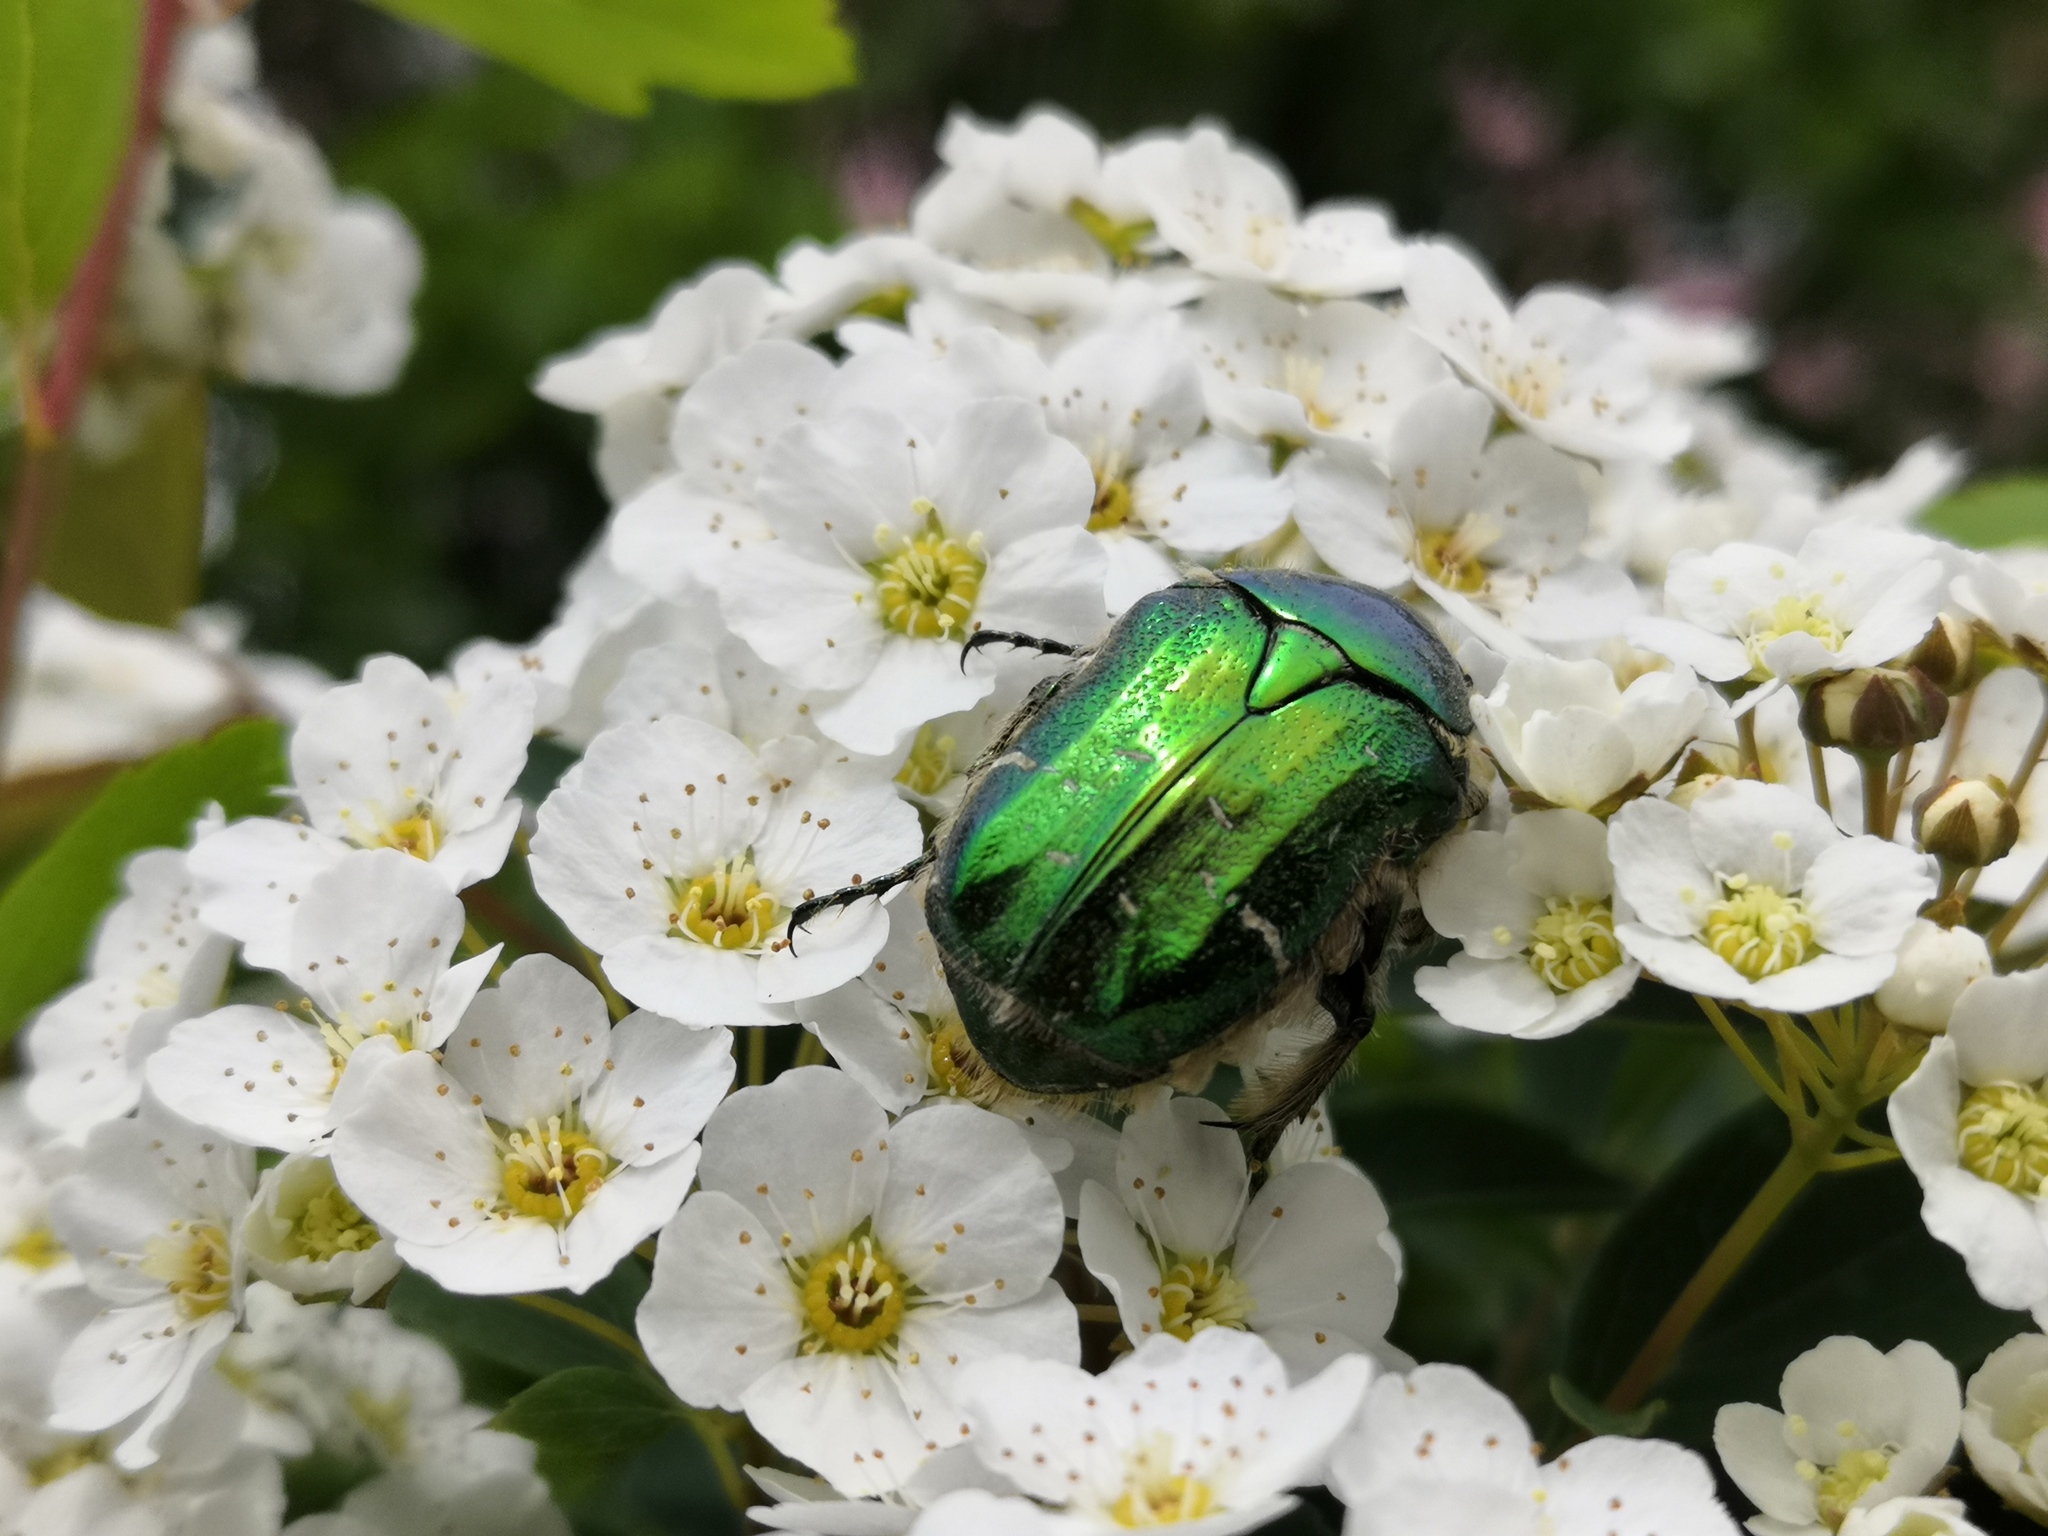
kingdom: Animalia
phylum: Arthropoda
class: Insecta
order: Coleoptera
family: Scarabaeidae
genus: Cetonia
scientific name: Cetonia aurata
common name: Rose chafer
